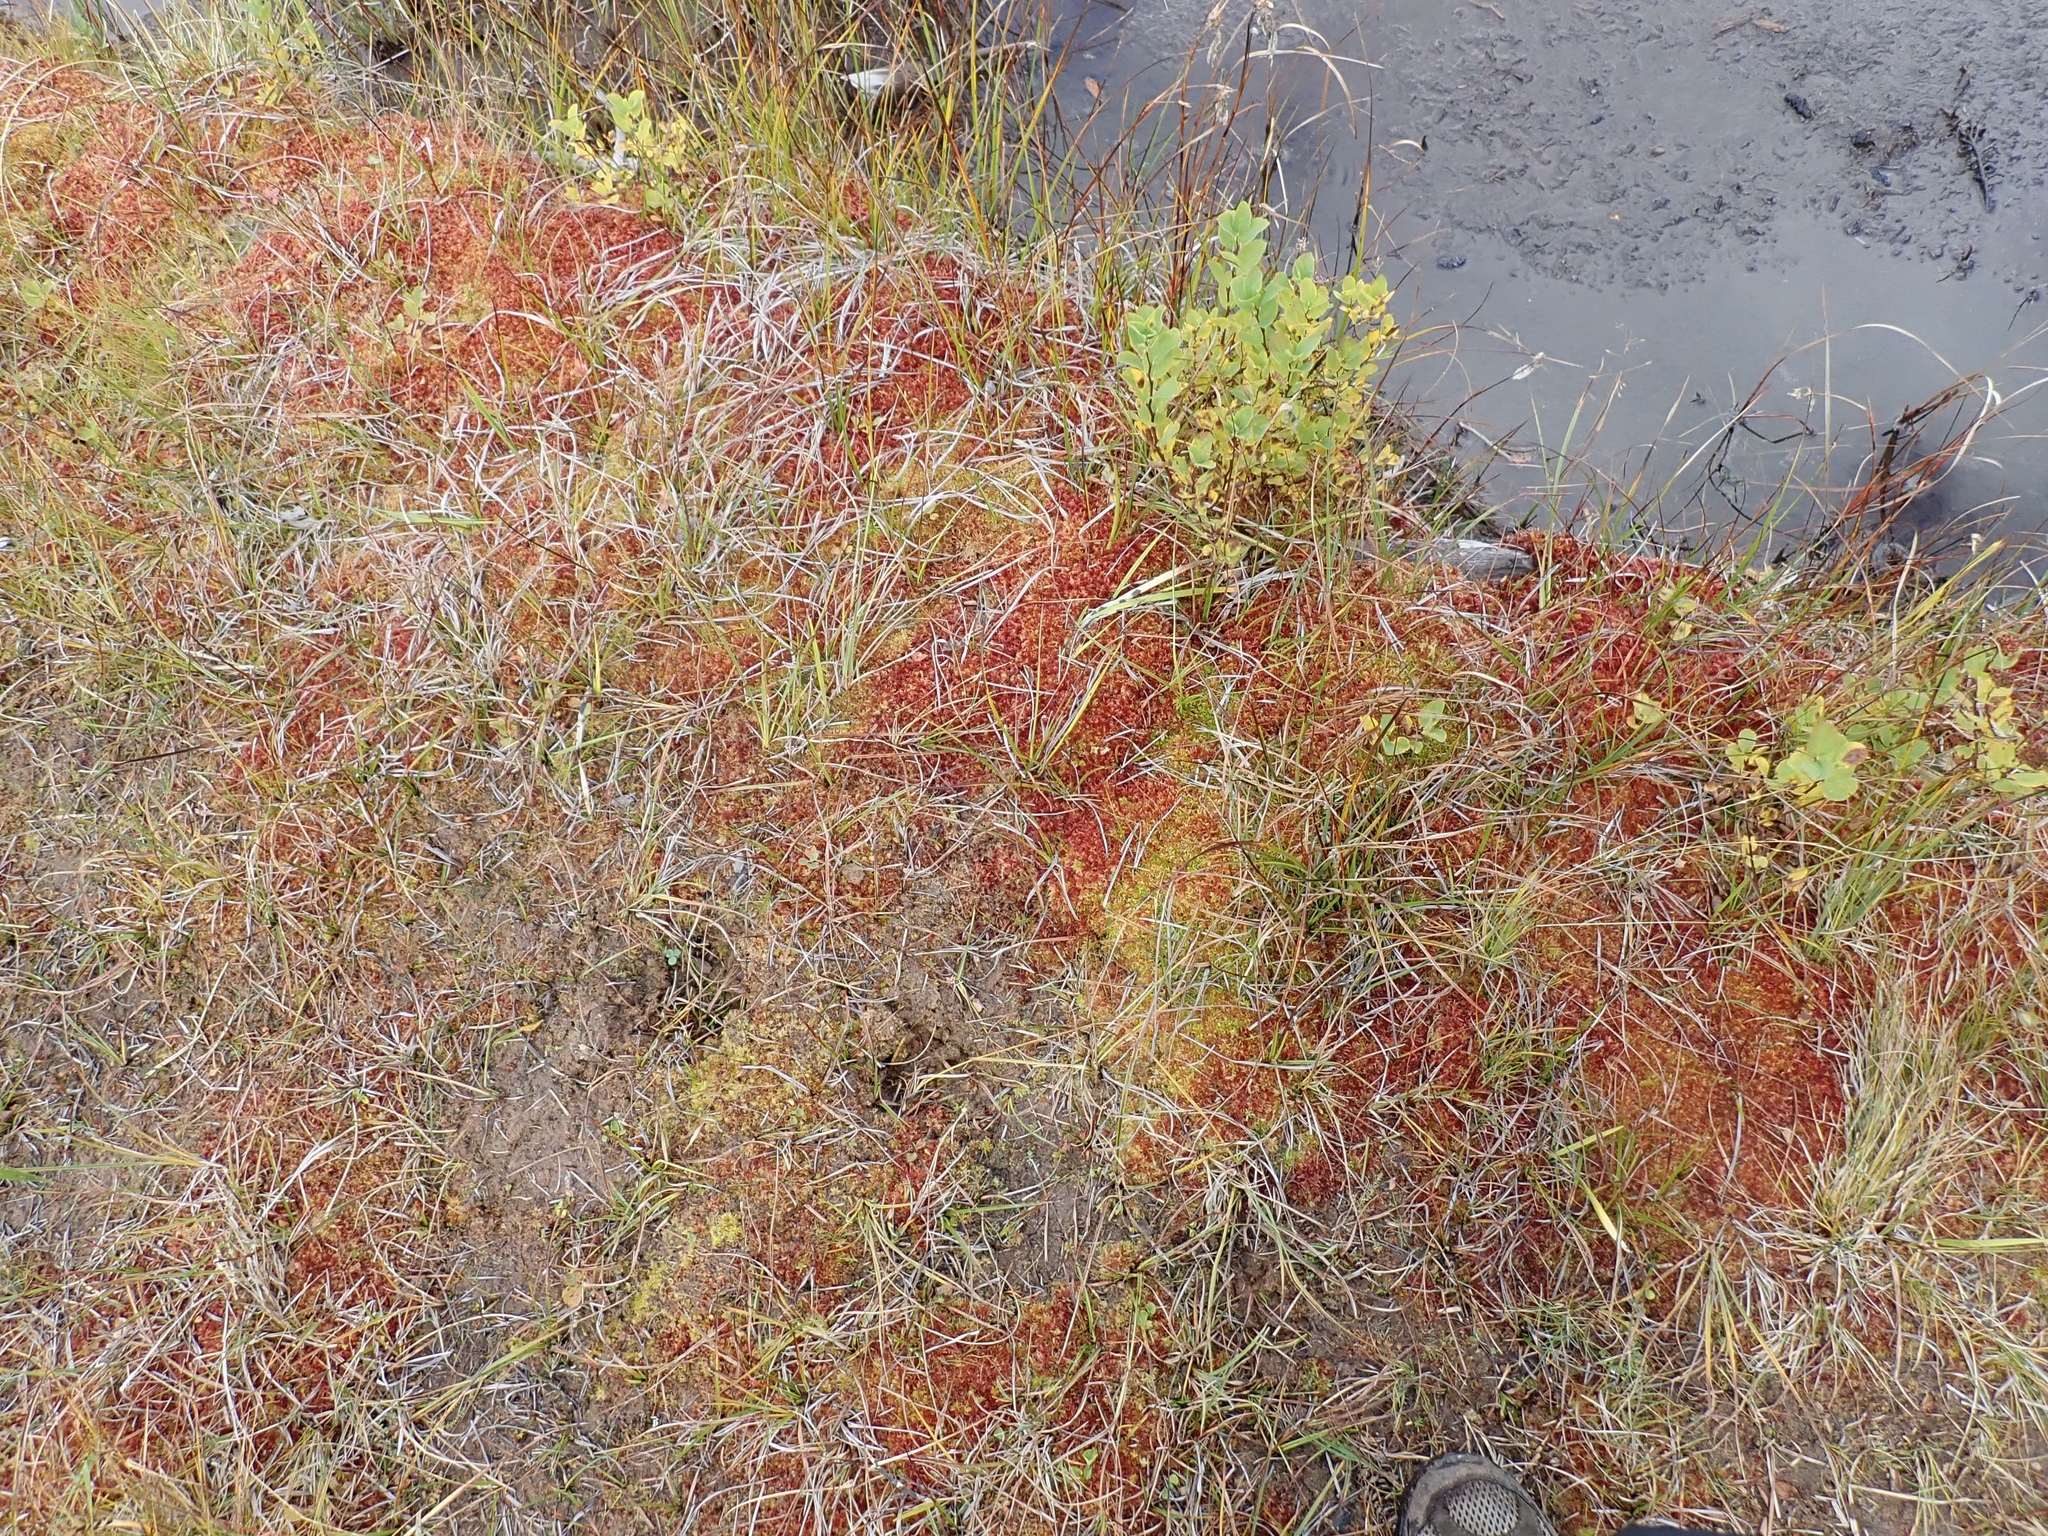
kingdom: Plantae
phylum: Bryophyta
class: Sphagnopsida
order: Sphagnales
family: Sphagnaceae
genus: Sphagnum
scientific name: Sphagnum rubellum
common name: Red peat moss
